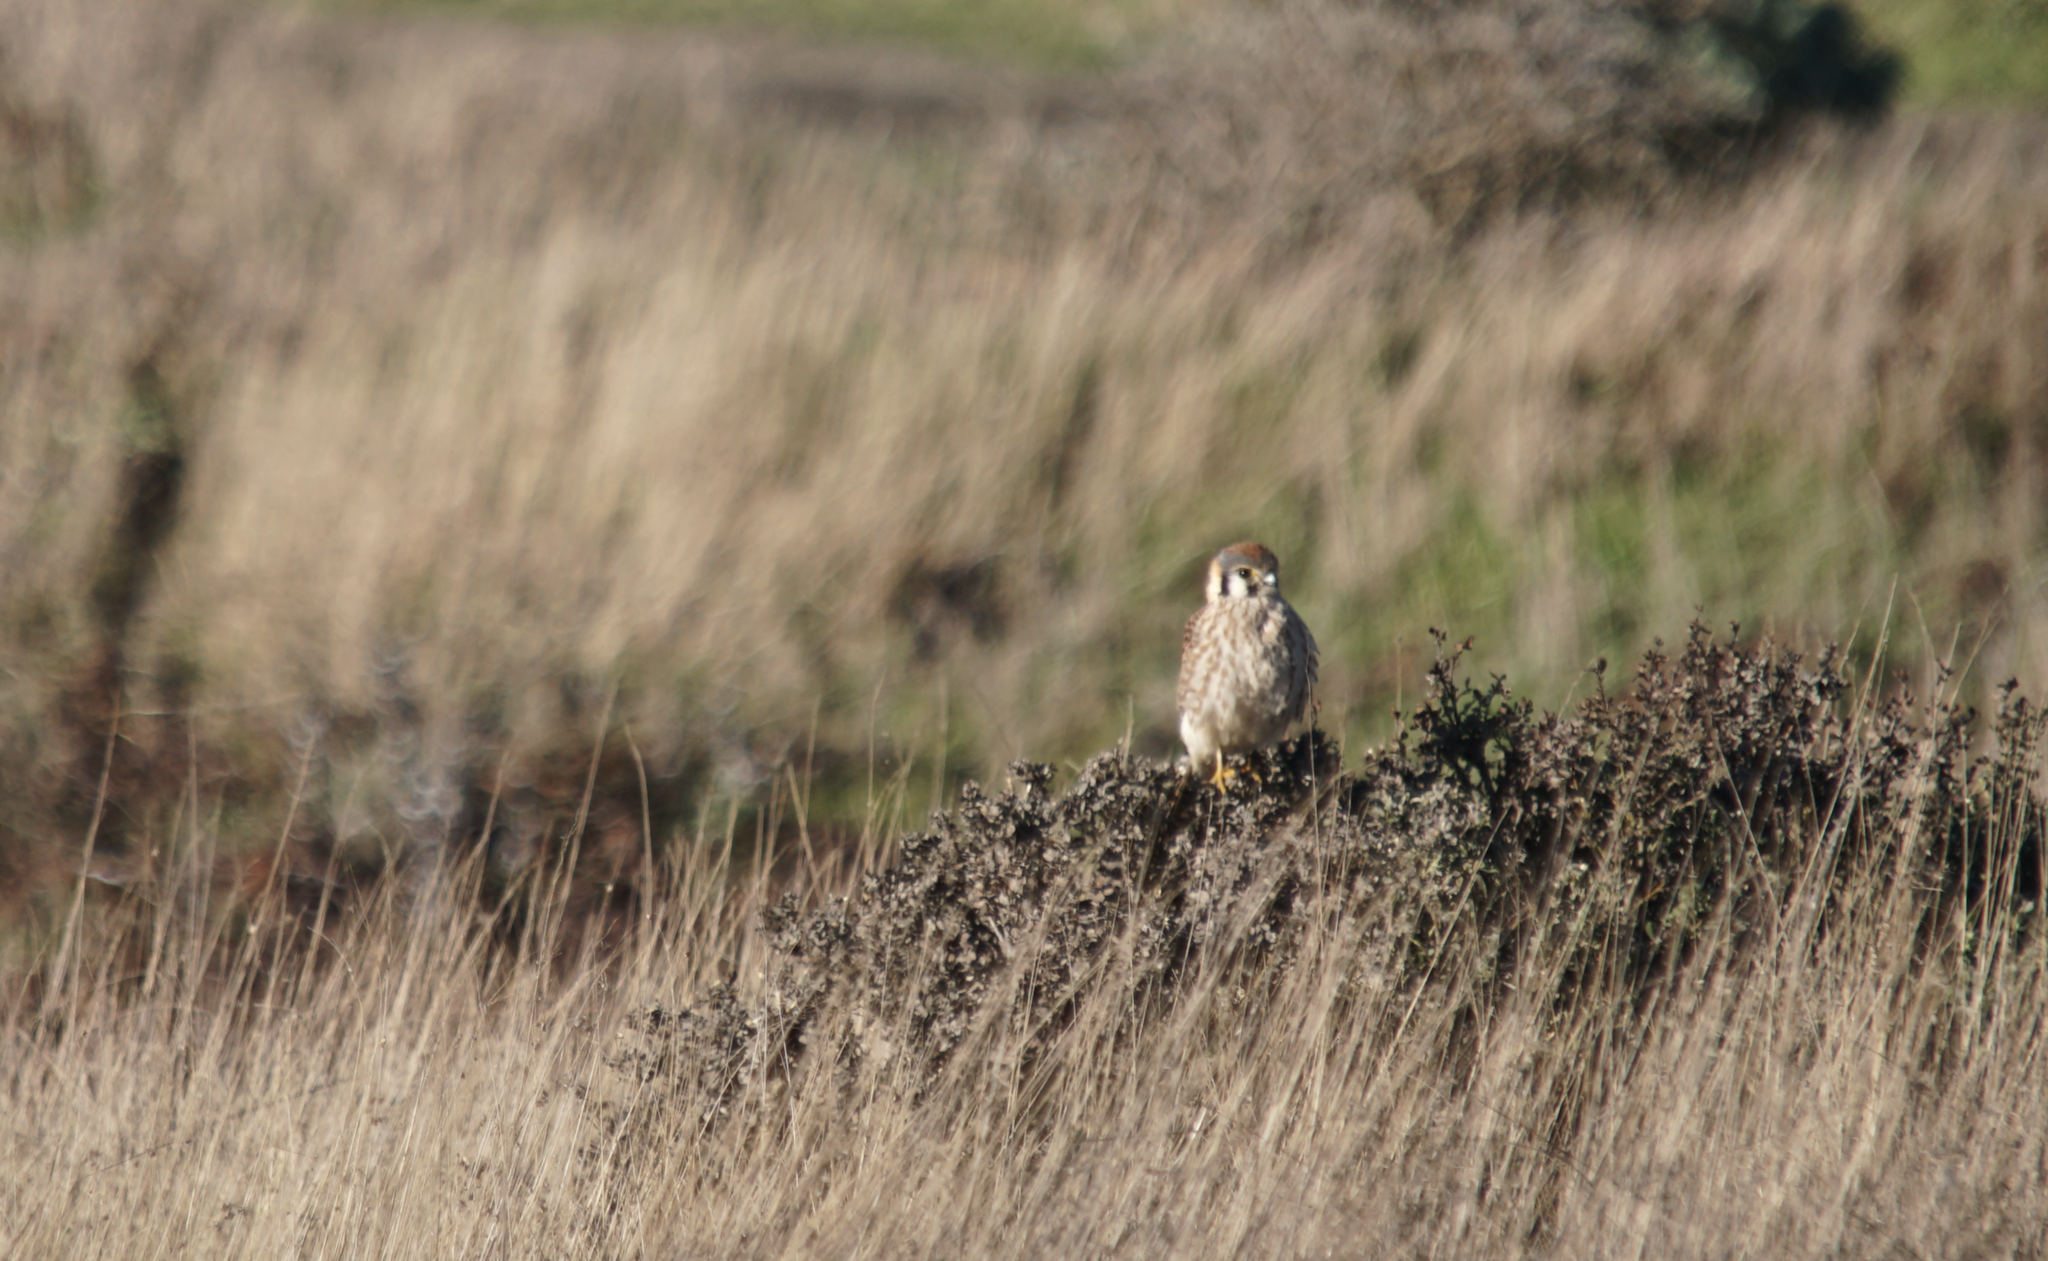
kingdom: Animalia
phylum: Chordata
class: Aves
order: Falconiformes
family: Falconidae
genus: Falco
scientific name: Falco sparverius
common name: American kestrel
